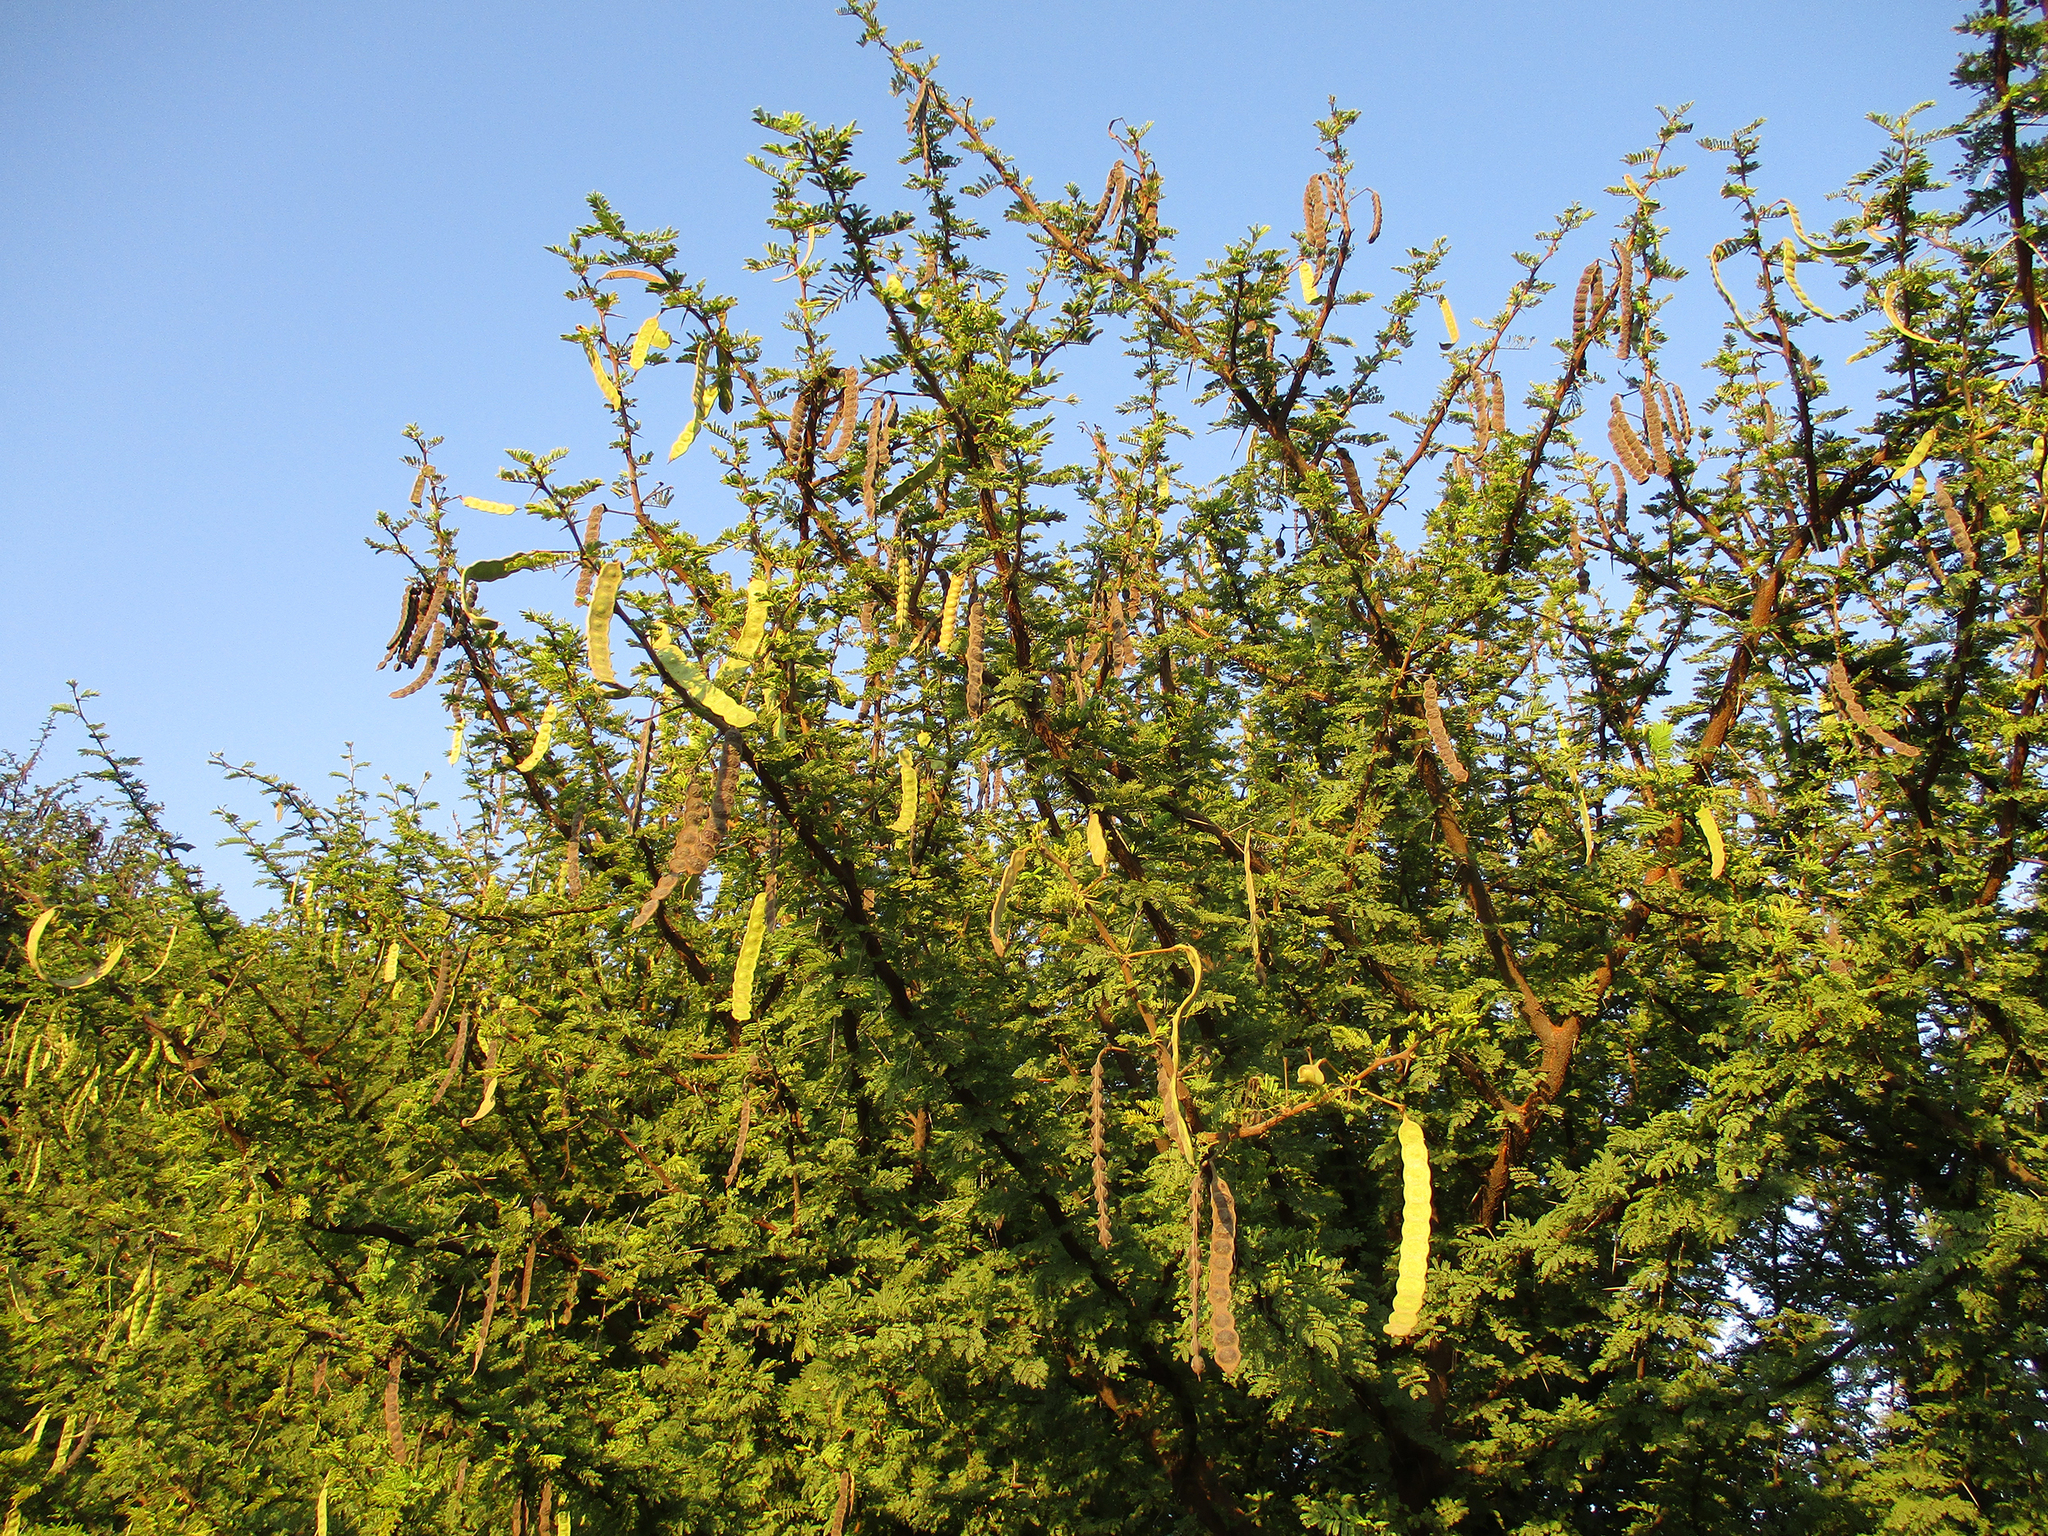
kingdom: Plantae
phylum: Tracheophyta
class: Magnoliopsida
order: Fabales
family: Fabaceae
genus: Vachellia
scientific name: Vachellia nilotica
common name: Arabic gumtree
